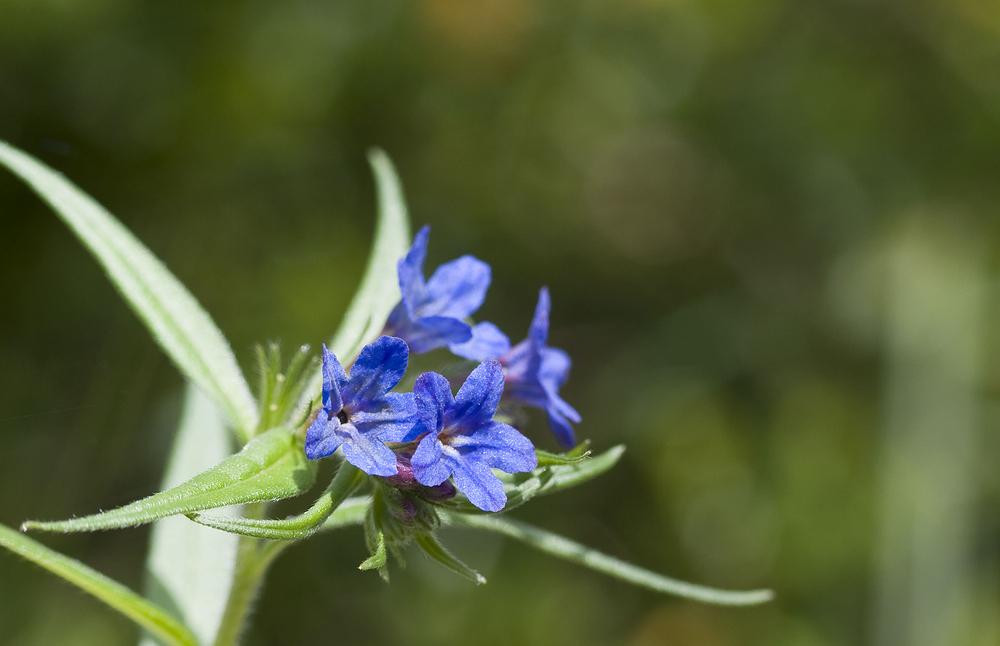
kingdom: Plantae
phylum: Tracheophyta
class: Magnoliopsida
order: Boraginales
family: Boraginaceae
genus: Aegonychon
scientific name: Aegonychon purpurocaeruleum
